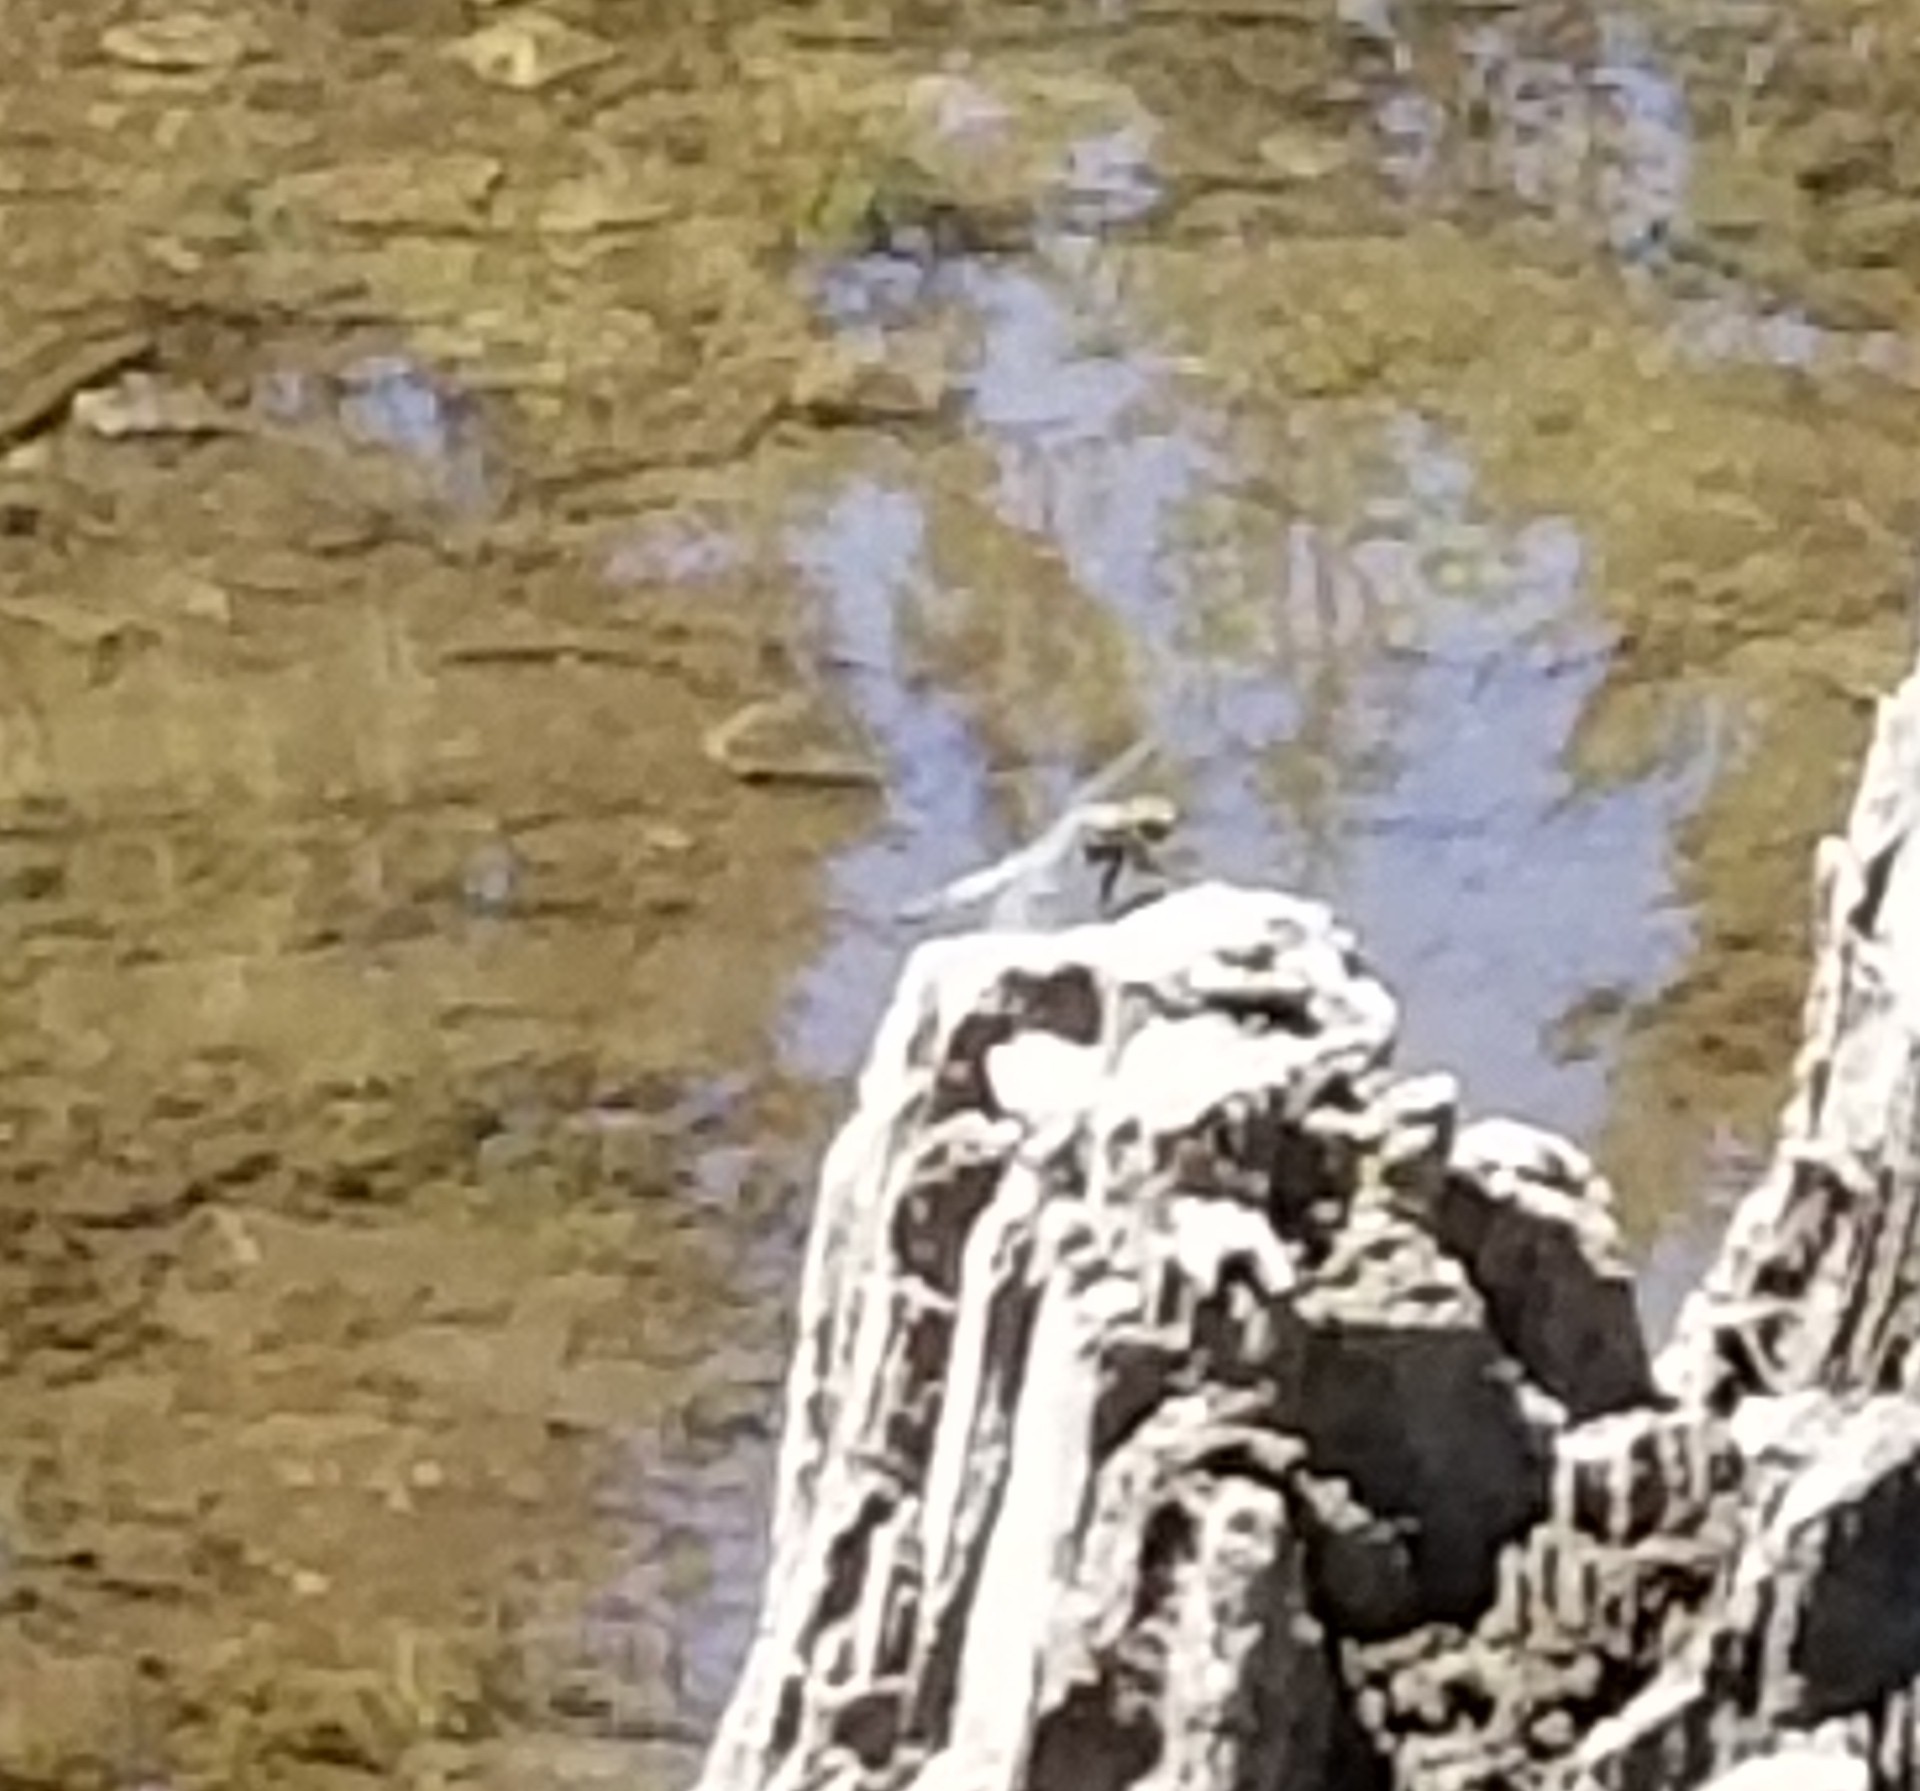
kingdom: Animalia
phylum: Arthropoda
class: Insecta
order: Odonata
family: Libellulidae
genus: Libellula
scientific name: Libellula quadrimaculata
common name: Four-spotted chaser
